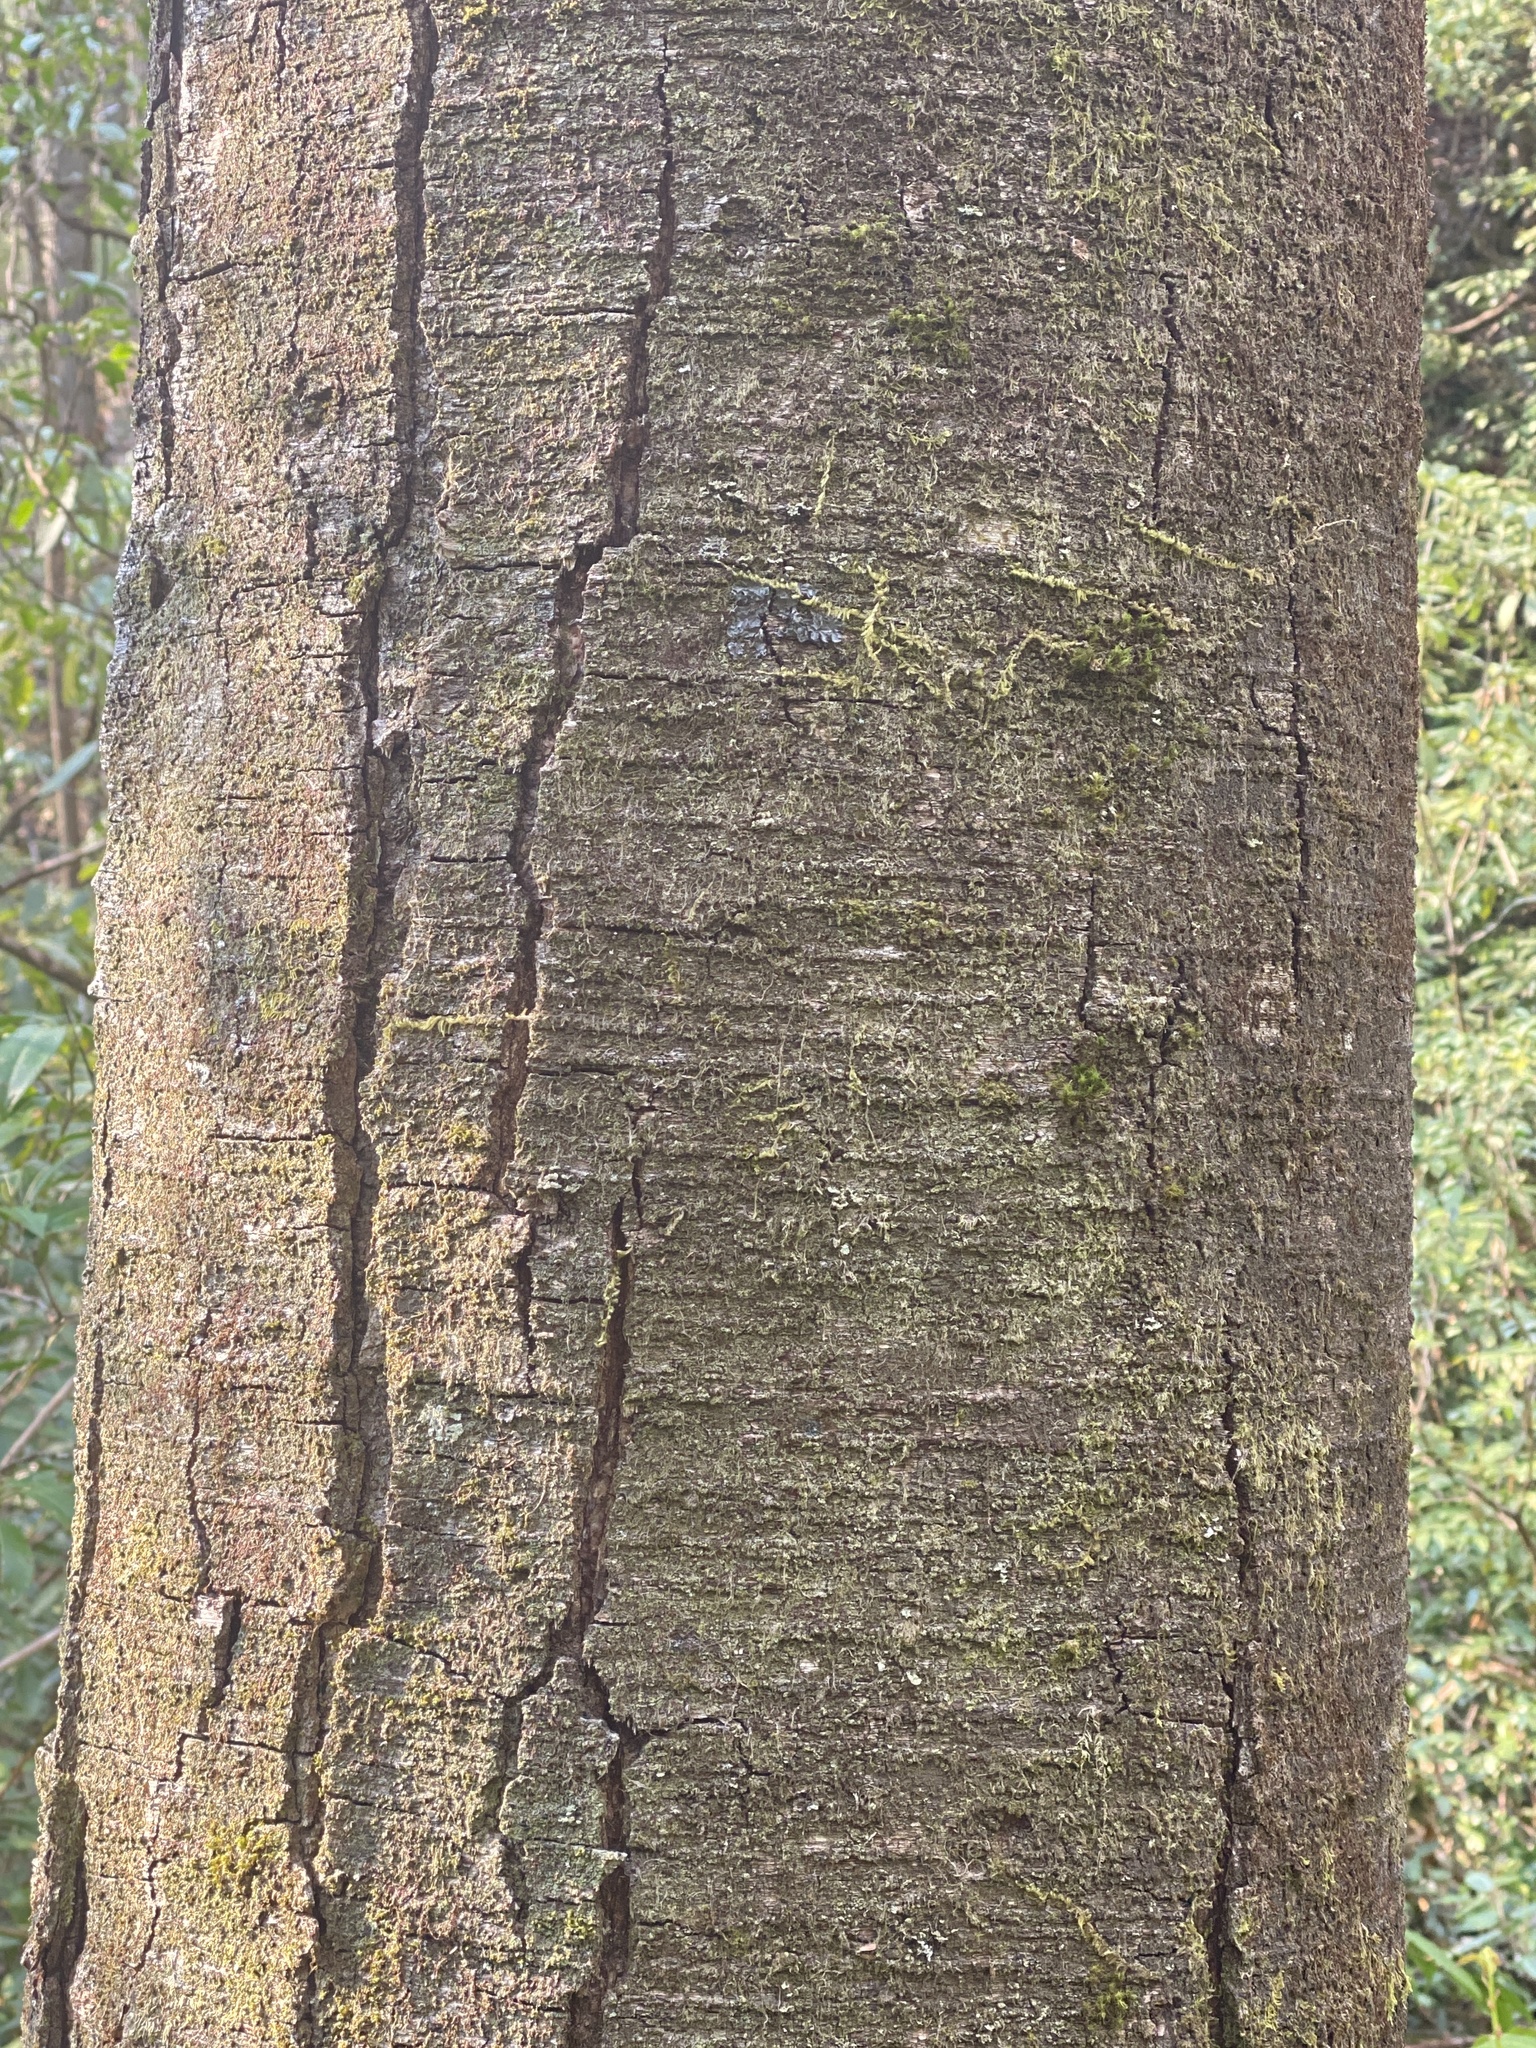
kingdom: Plantae
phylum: Tracheophyta
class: Magnoliopsida
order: Fagales
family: Betulaceae
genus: Betula
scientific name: Betula lenta
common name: Black birch
